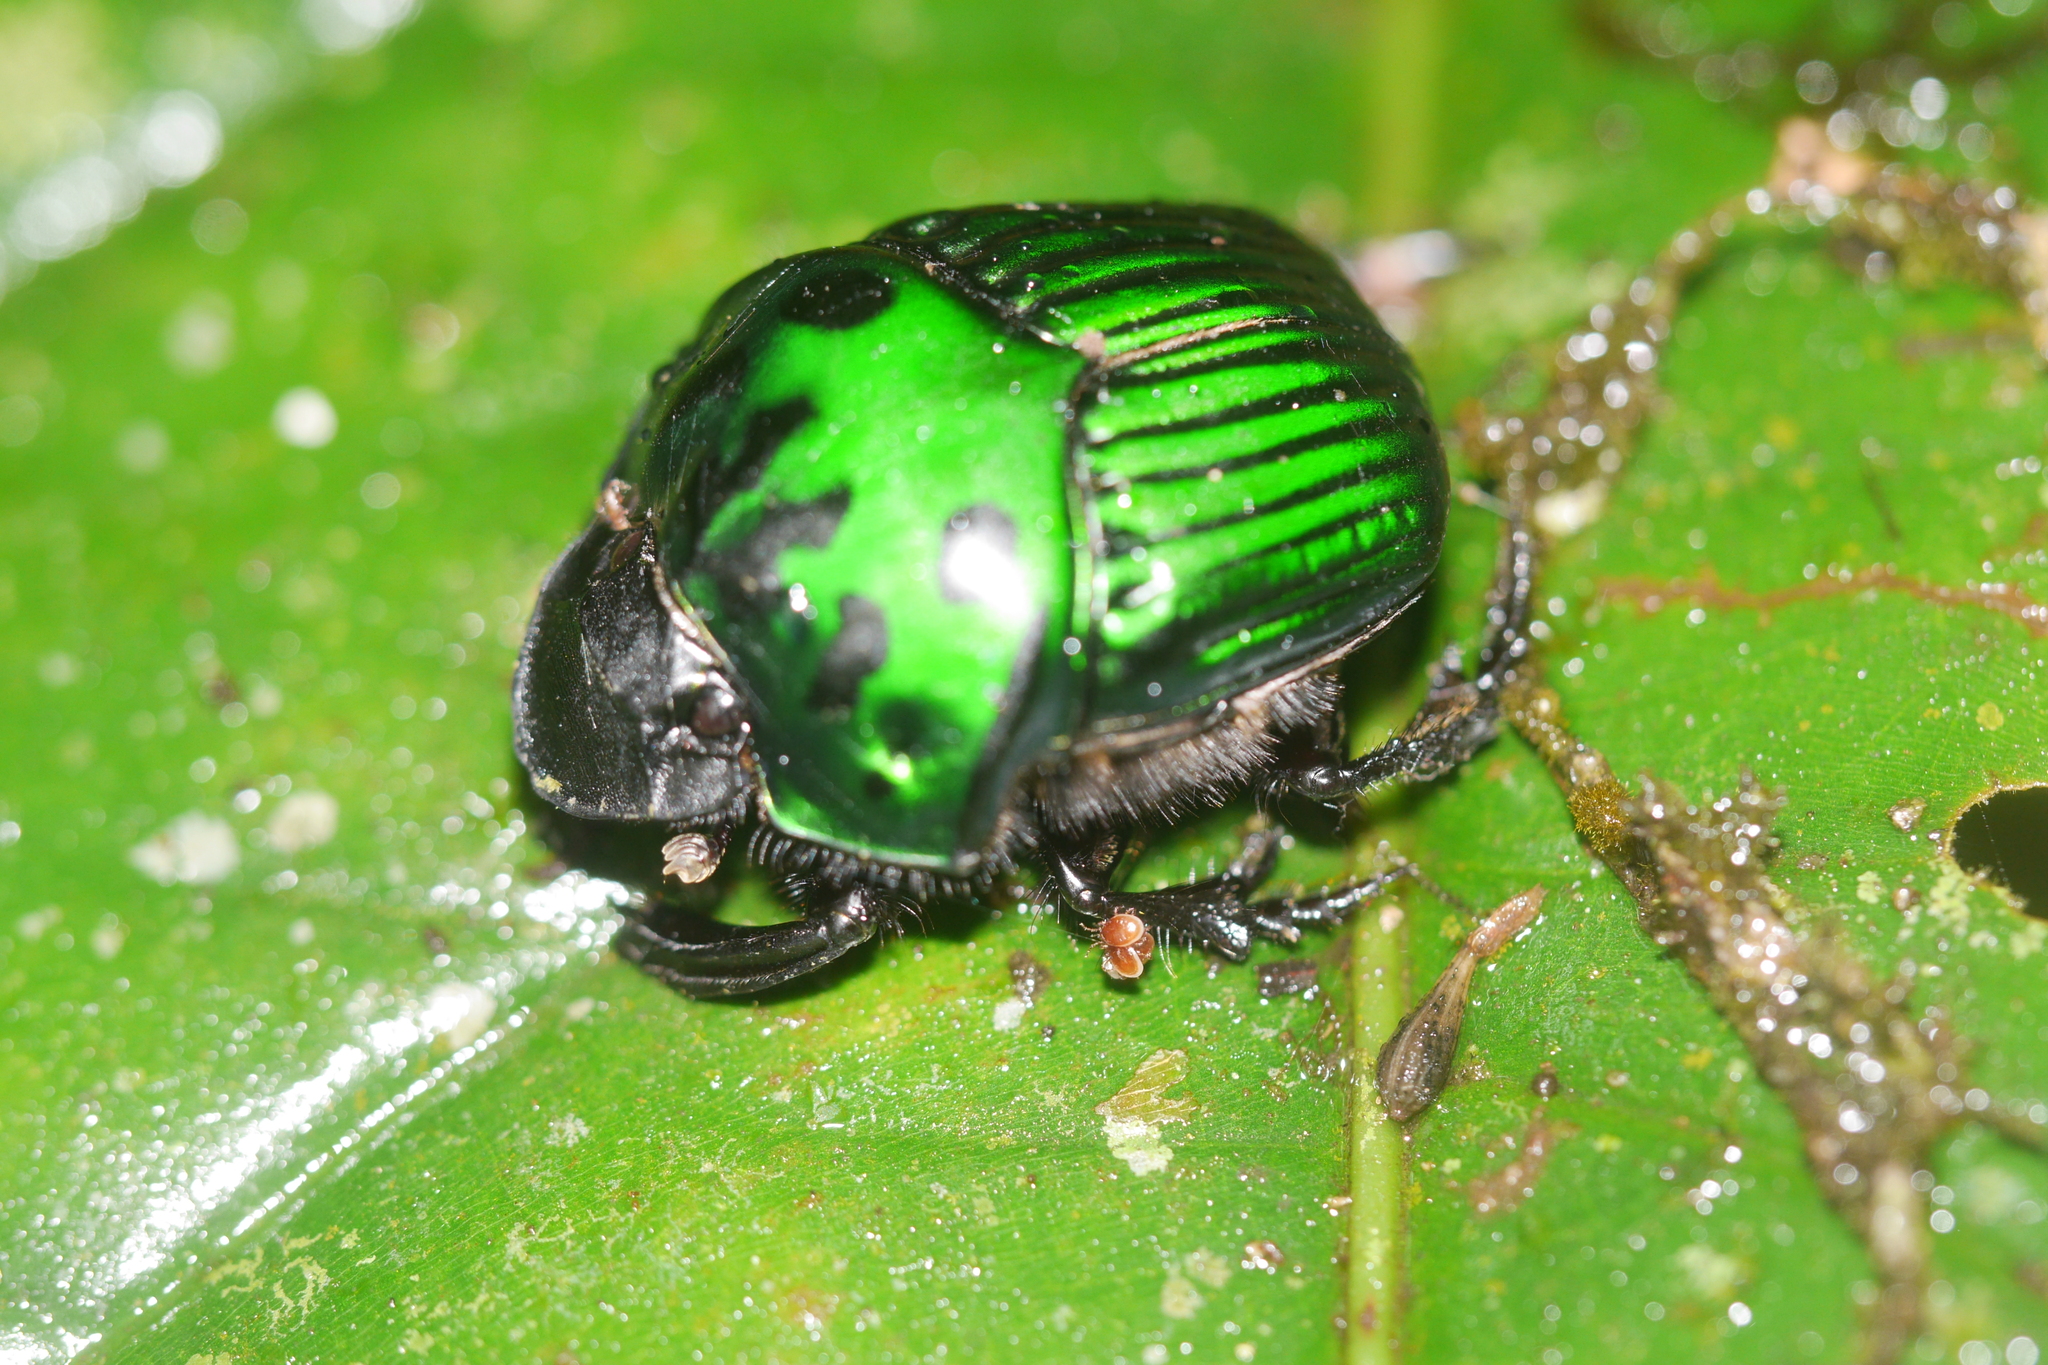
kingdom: Animalia
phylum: Arthropoda
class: Insecta
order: Coleoptera
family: Scarabaeidae
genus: Oxysternon
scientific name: Oxysternon conspicillatum
